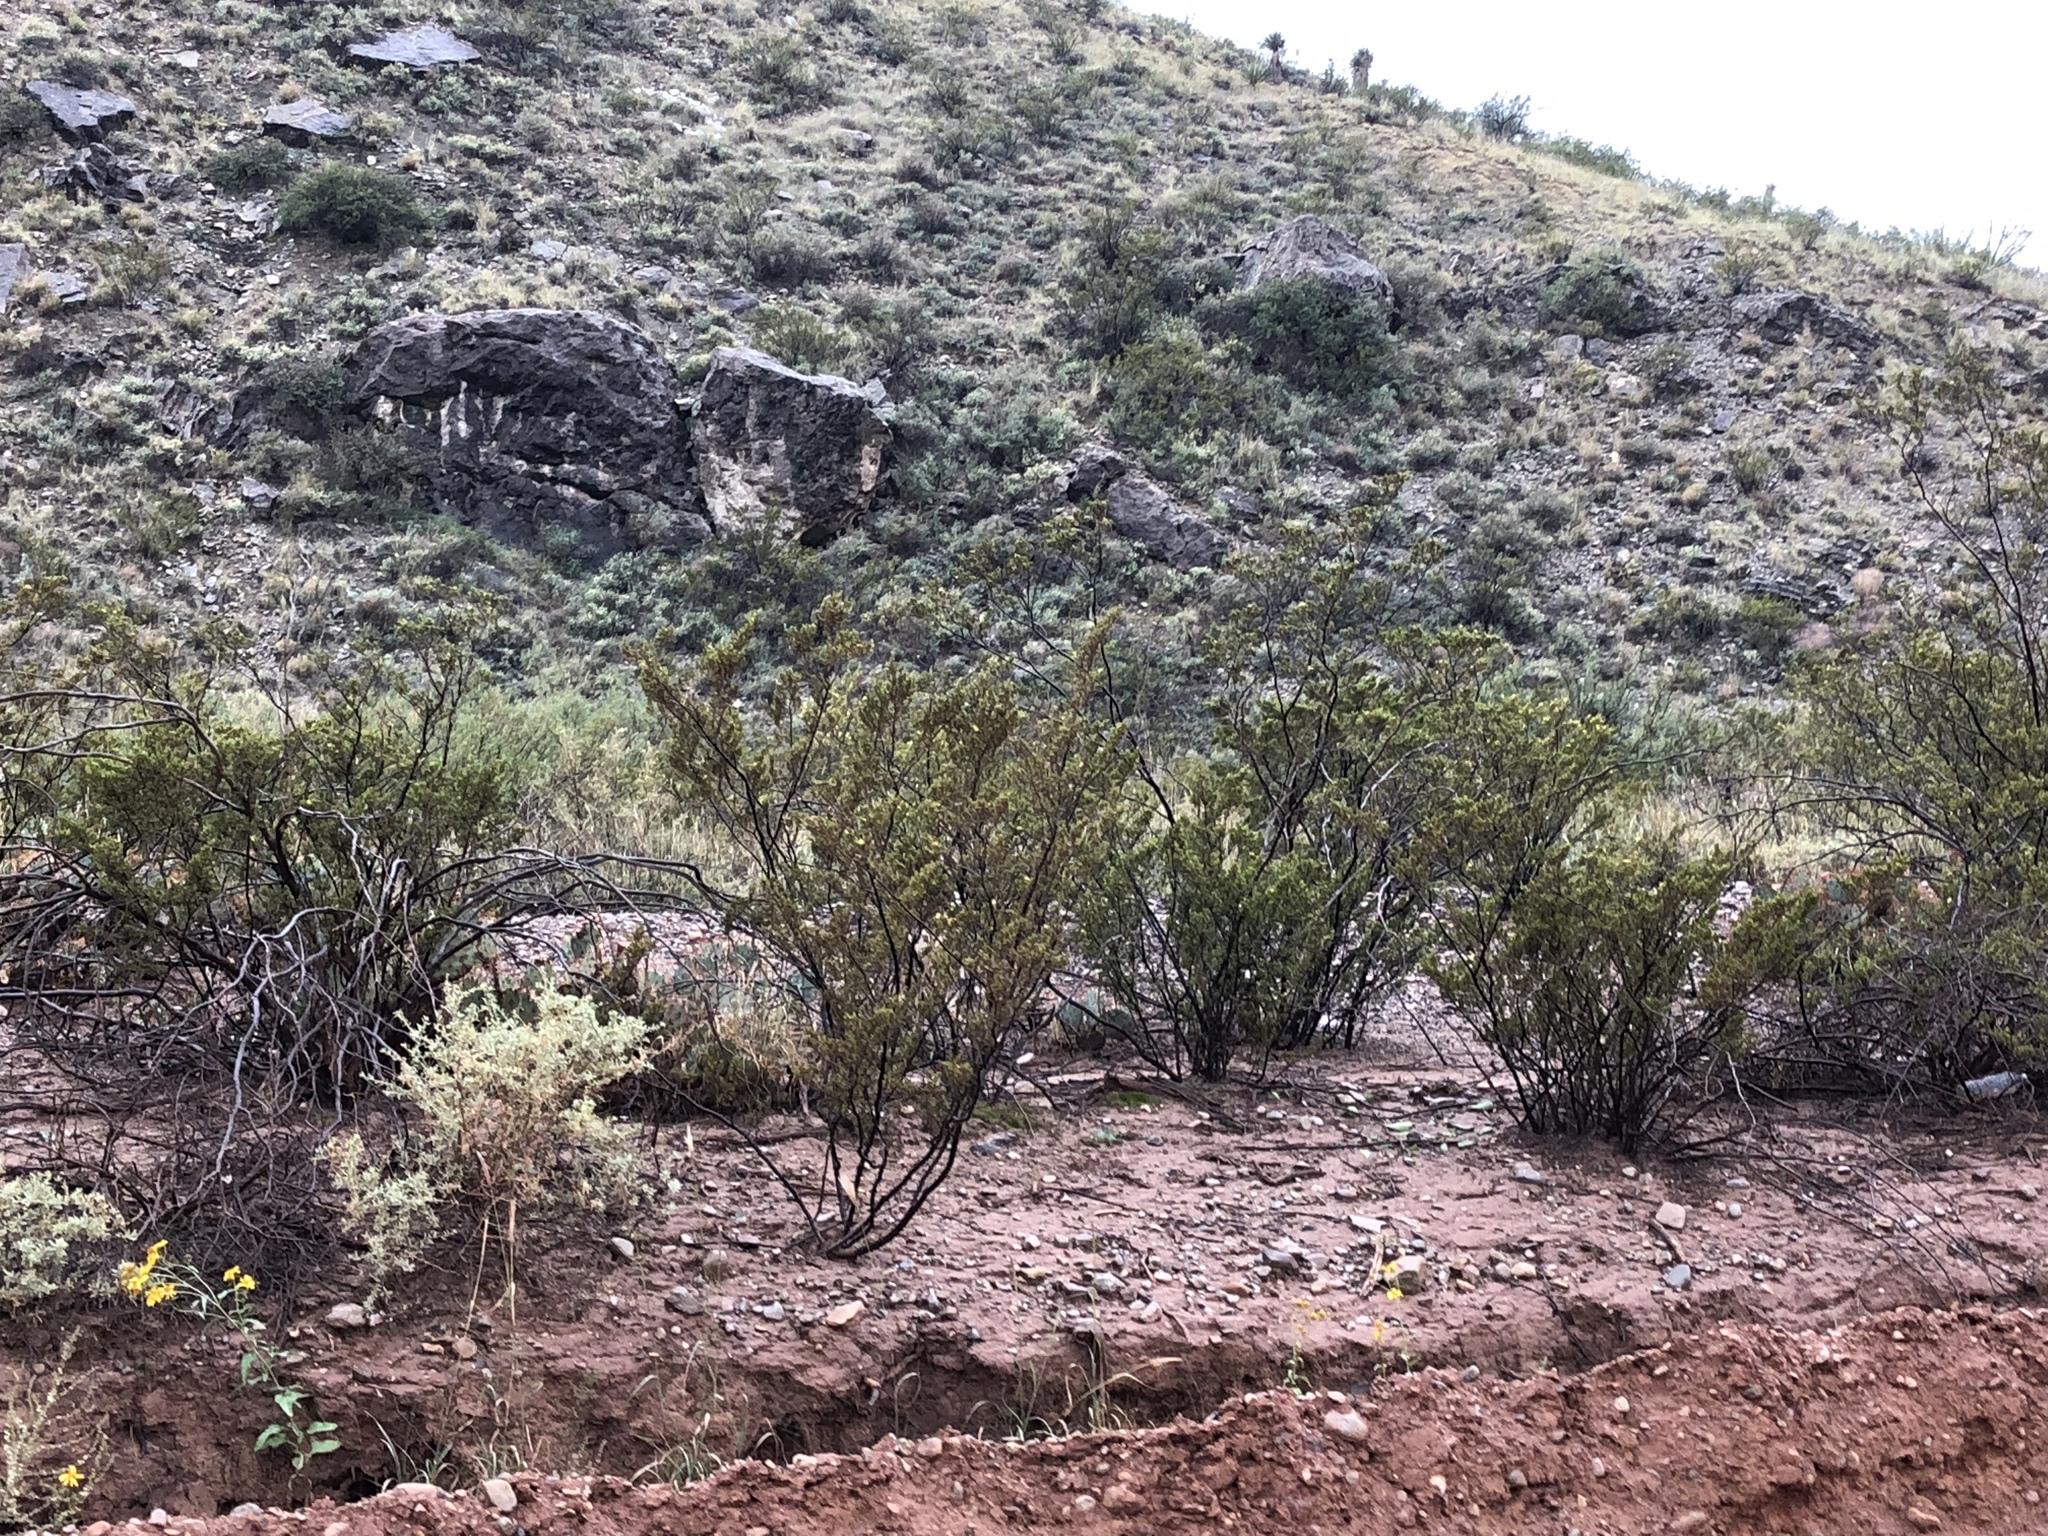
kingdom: Plantae
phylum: Tracheophyta
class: Magnoliopsida
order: Zygophyllales
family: Zygophyllaceae
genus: Larrea
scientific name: Larrea tridentata
